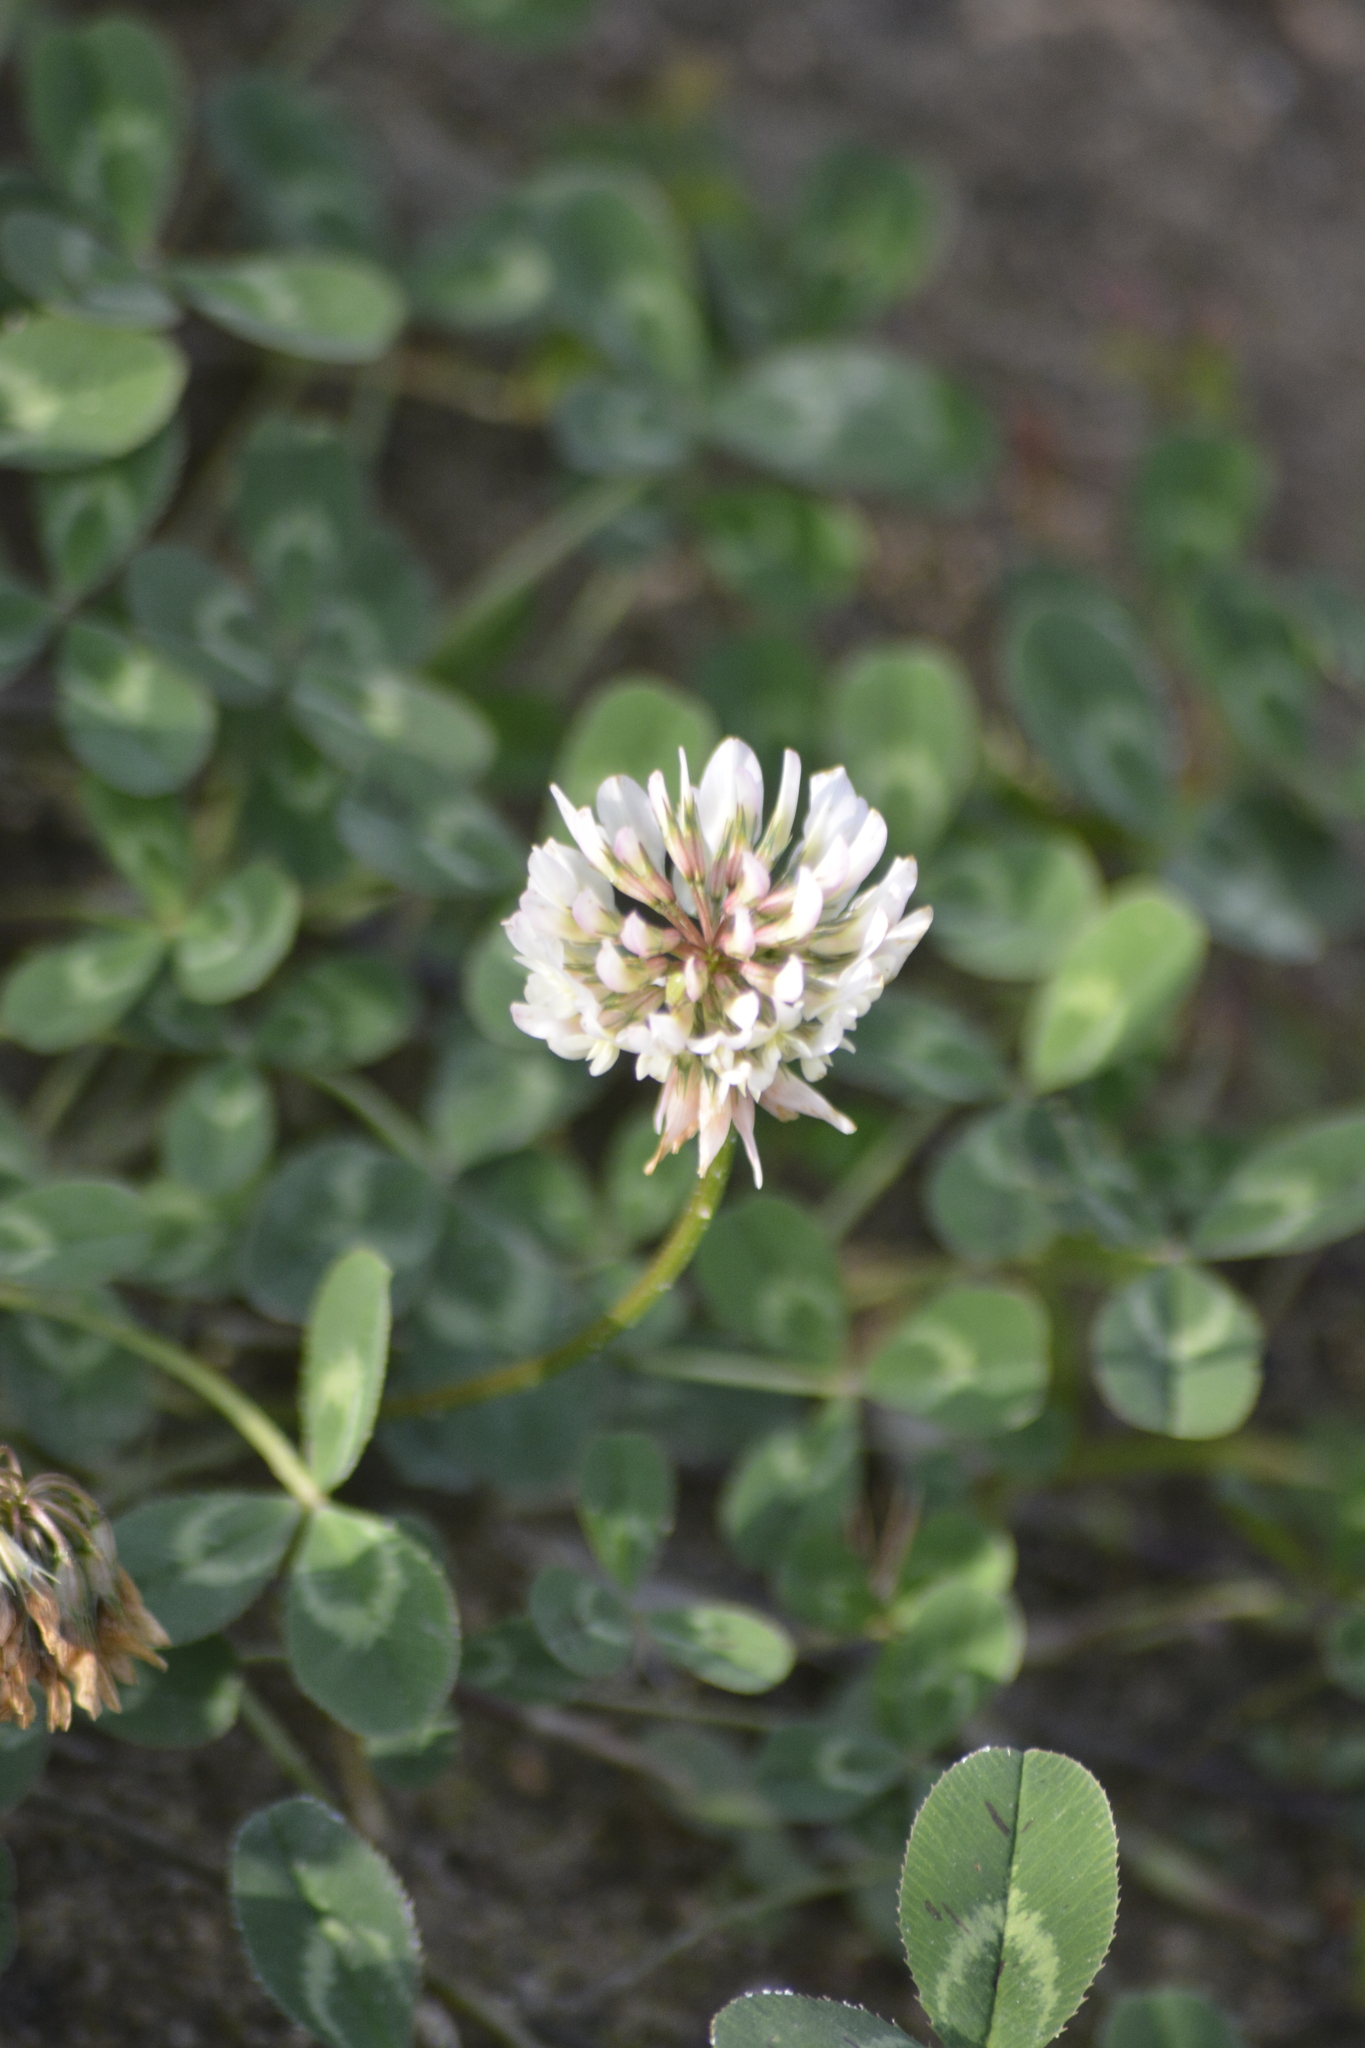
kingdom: Plantae
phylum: Tracheophyta
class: Magnoliopsida
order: Fabales
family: Fabaceae
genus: Trifolium
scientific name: Trifolium repens
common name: White clover
